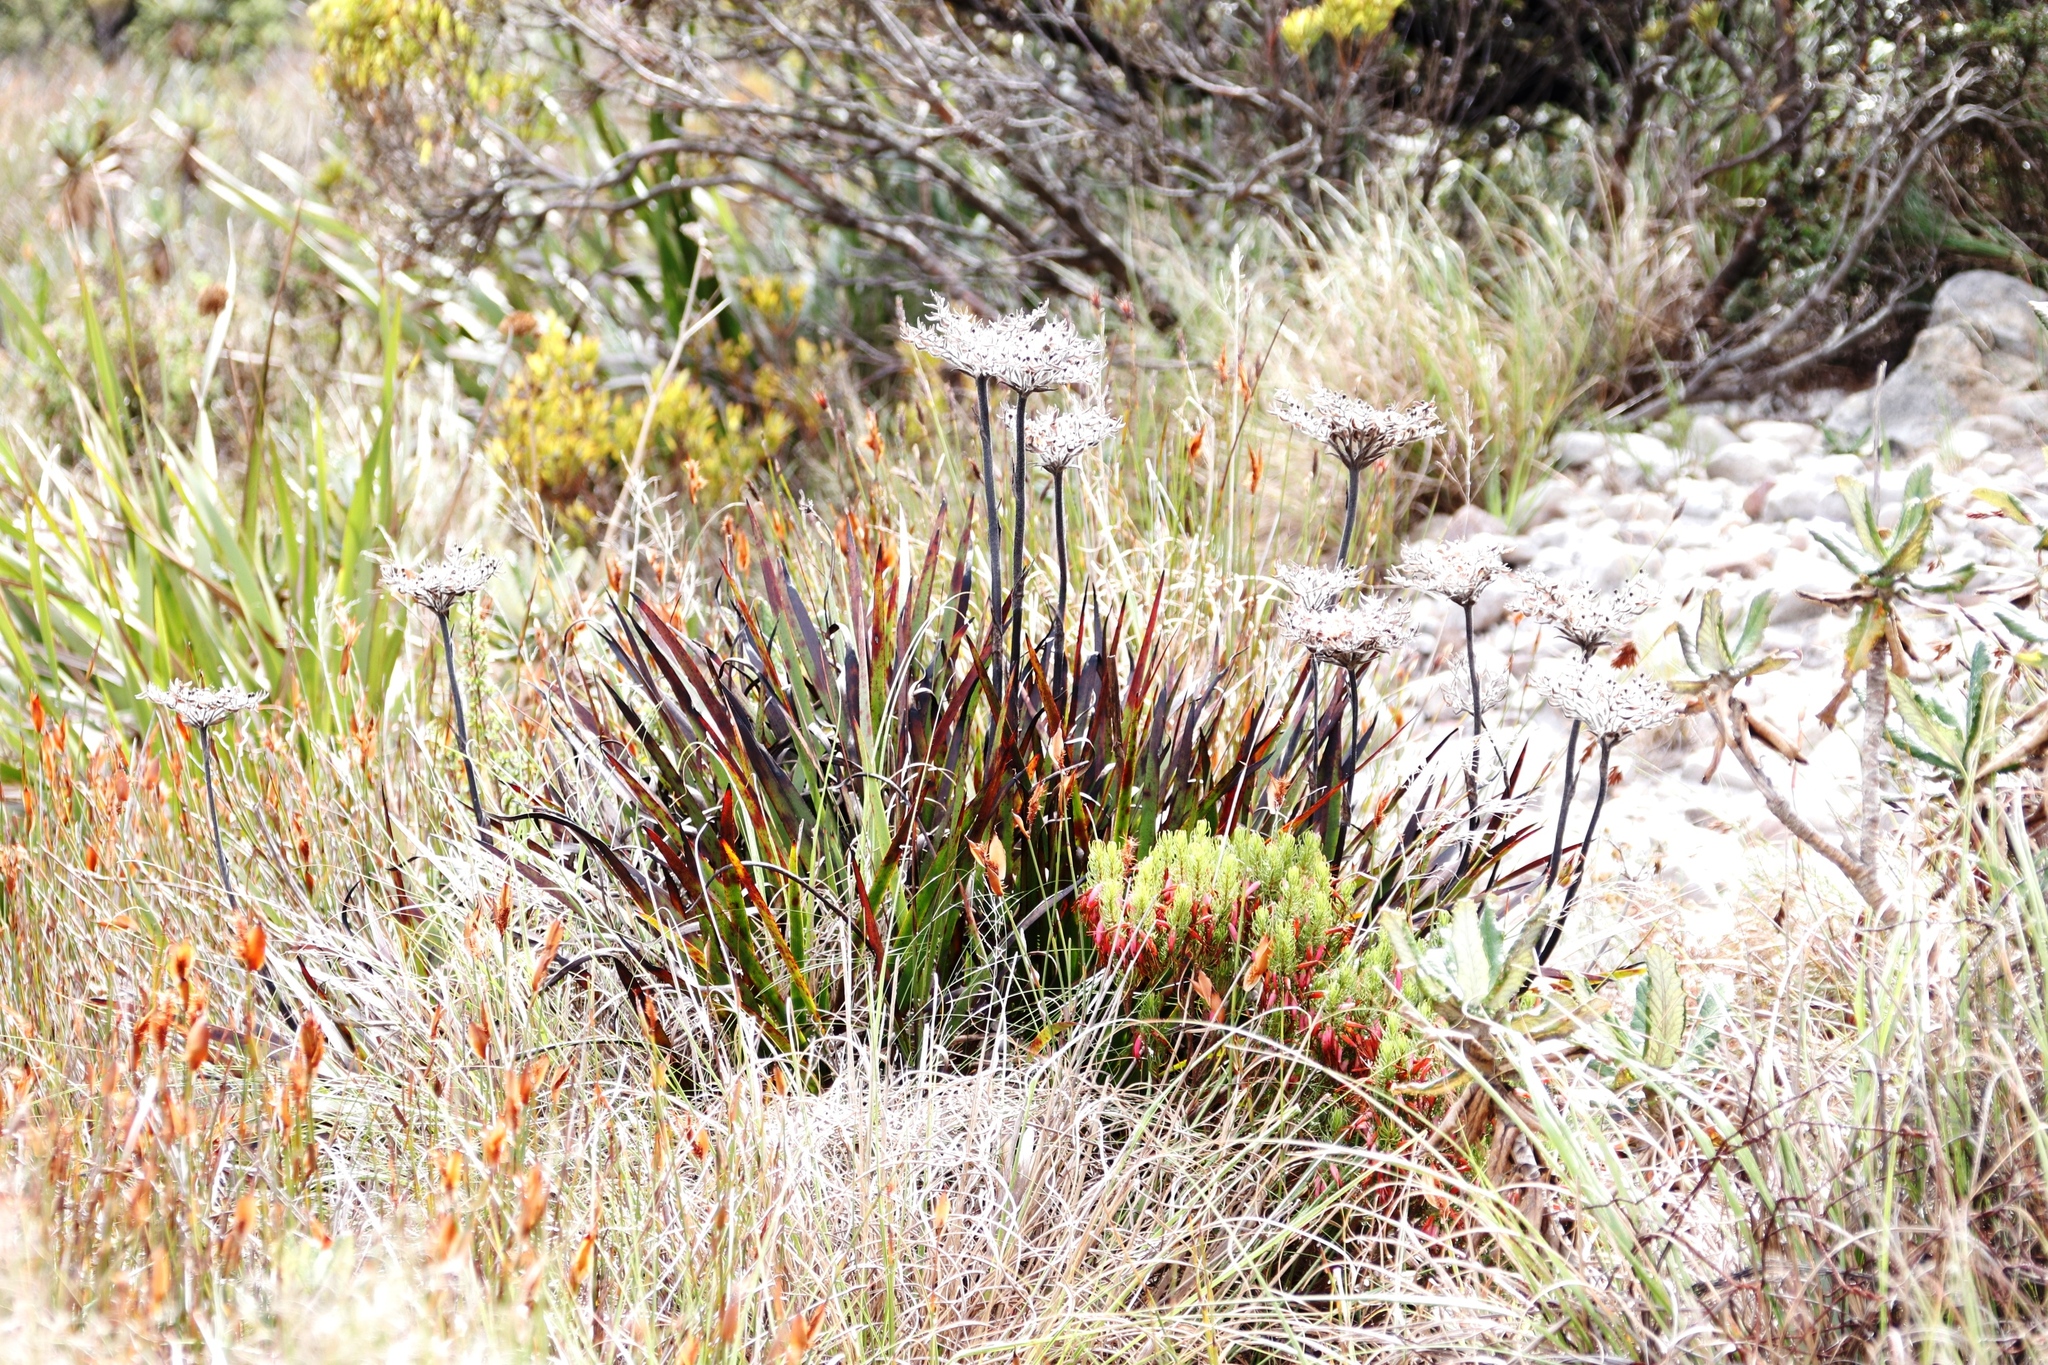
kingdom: Plantae
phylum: Tracheophyta
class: Liliopsida
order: Commelinales
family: Haemodoraceae
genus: Dilatris
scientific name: Dilatris pillansii
